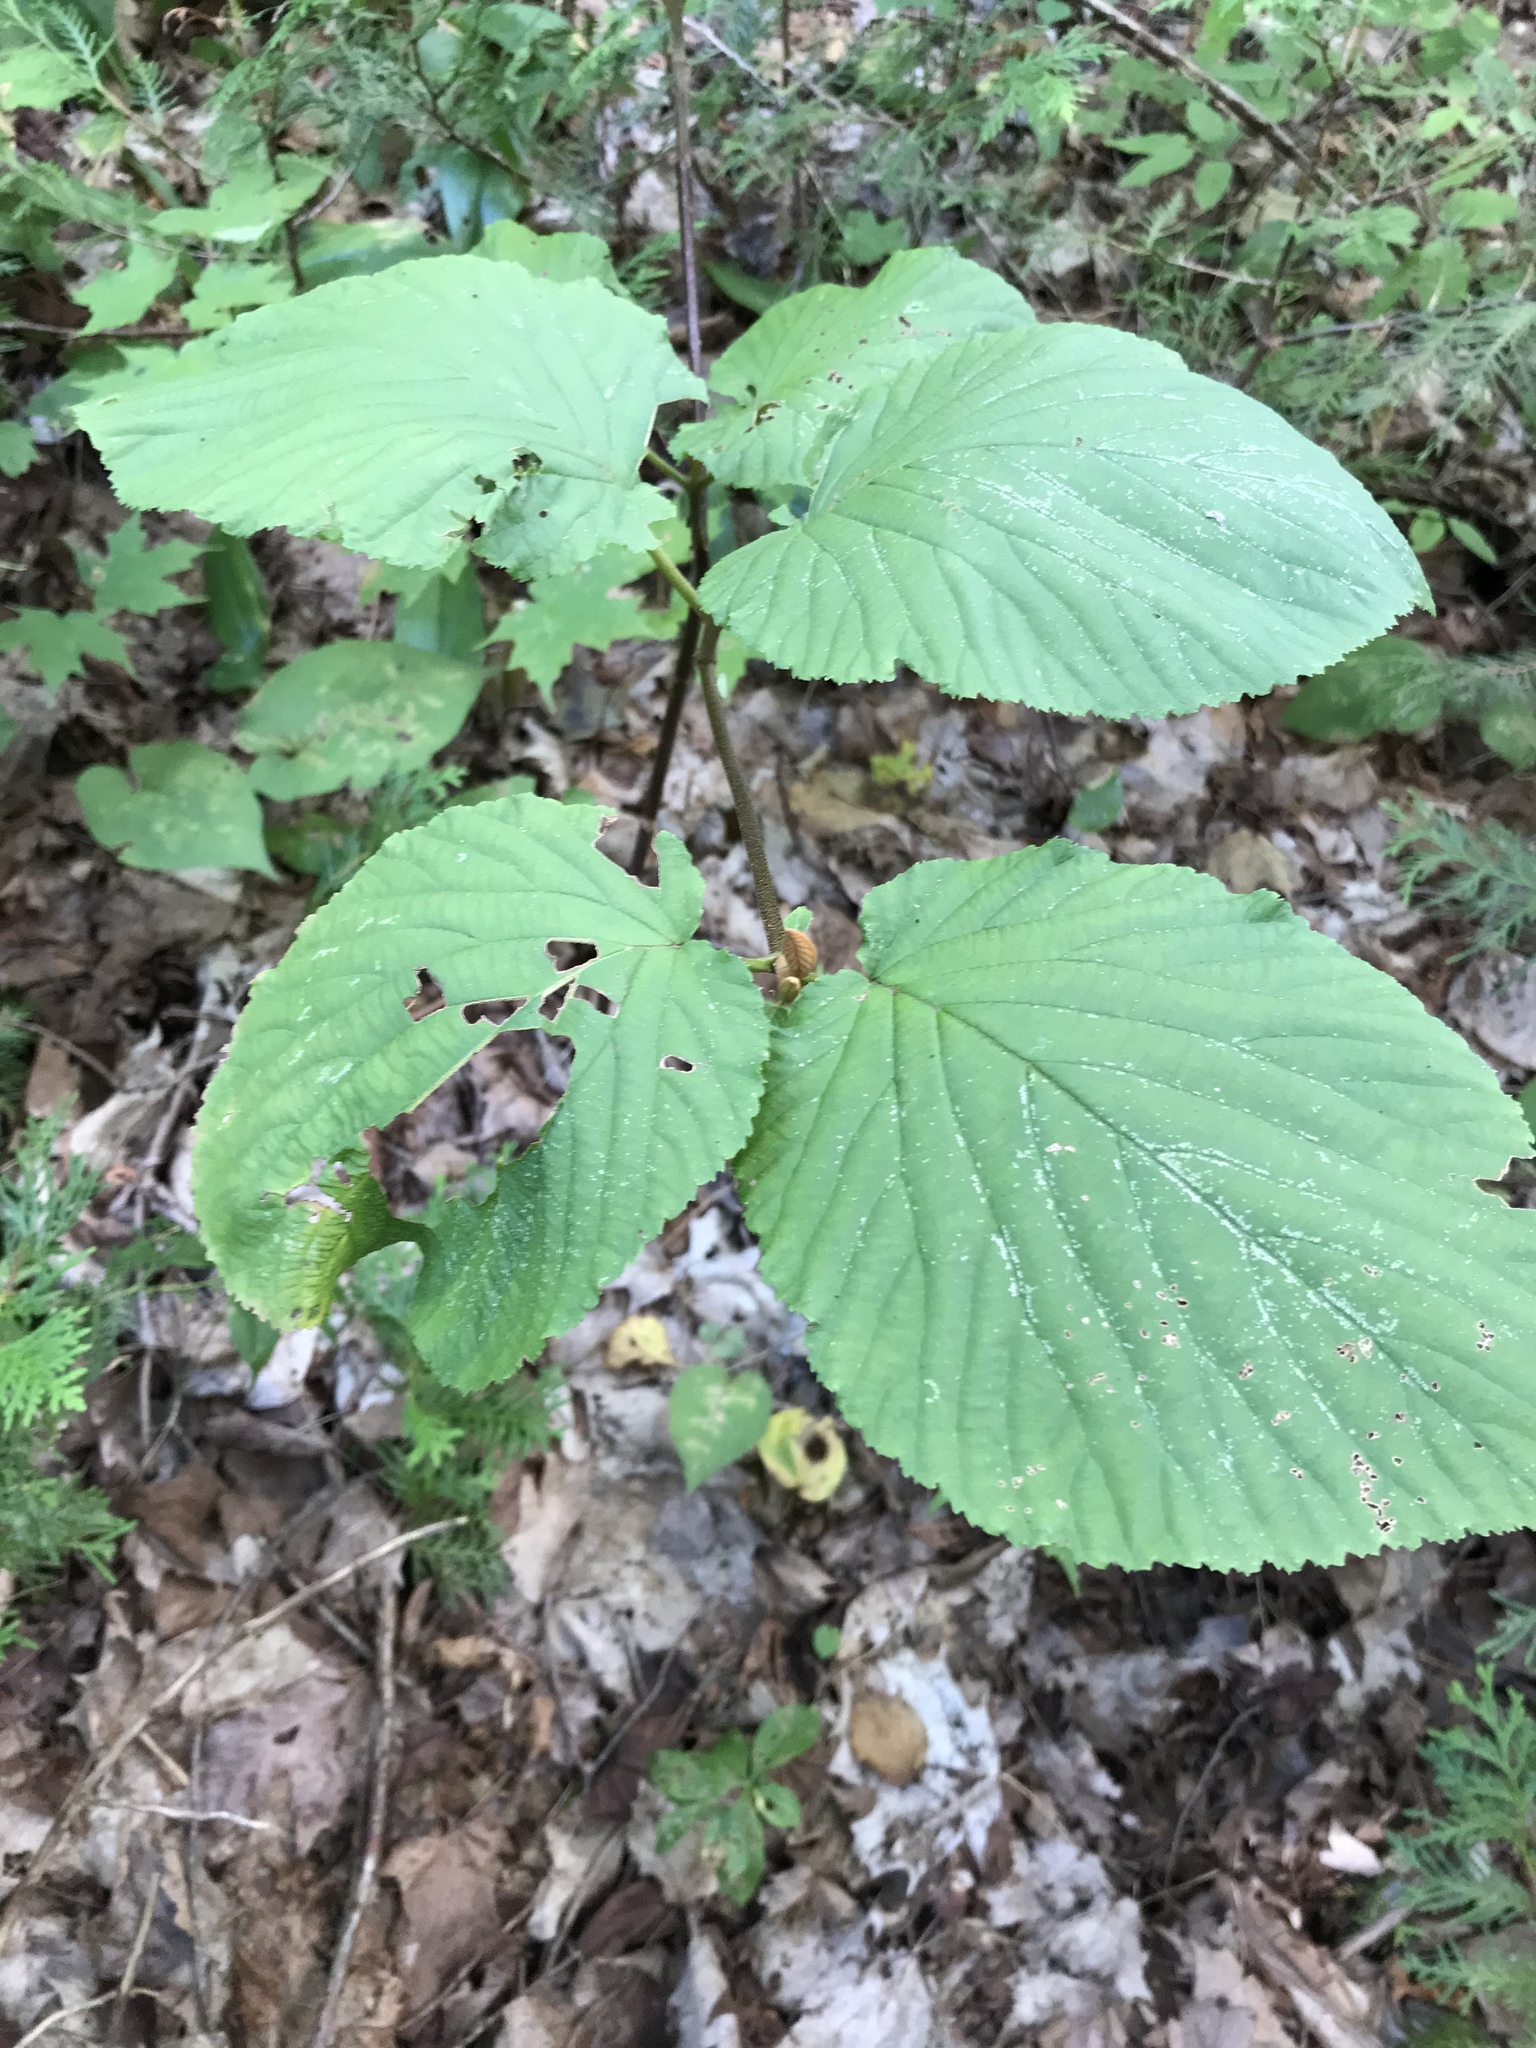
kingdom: Plantae
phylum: Tracheophyta
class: Magnoliopsida
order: Dipsacales
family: Viburnaceae
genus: Viburnum
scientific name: Viburnum lantanoides
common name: Hobblebush
